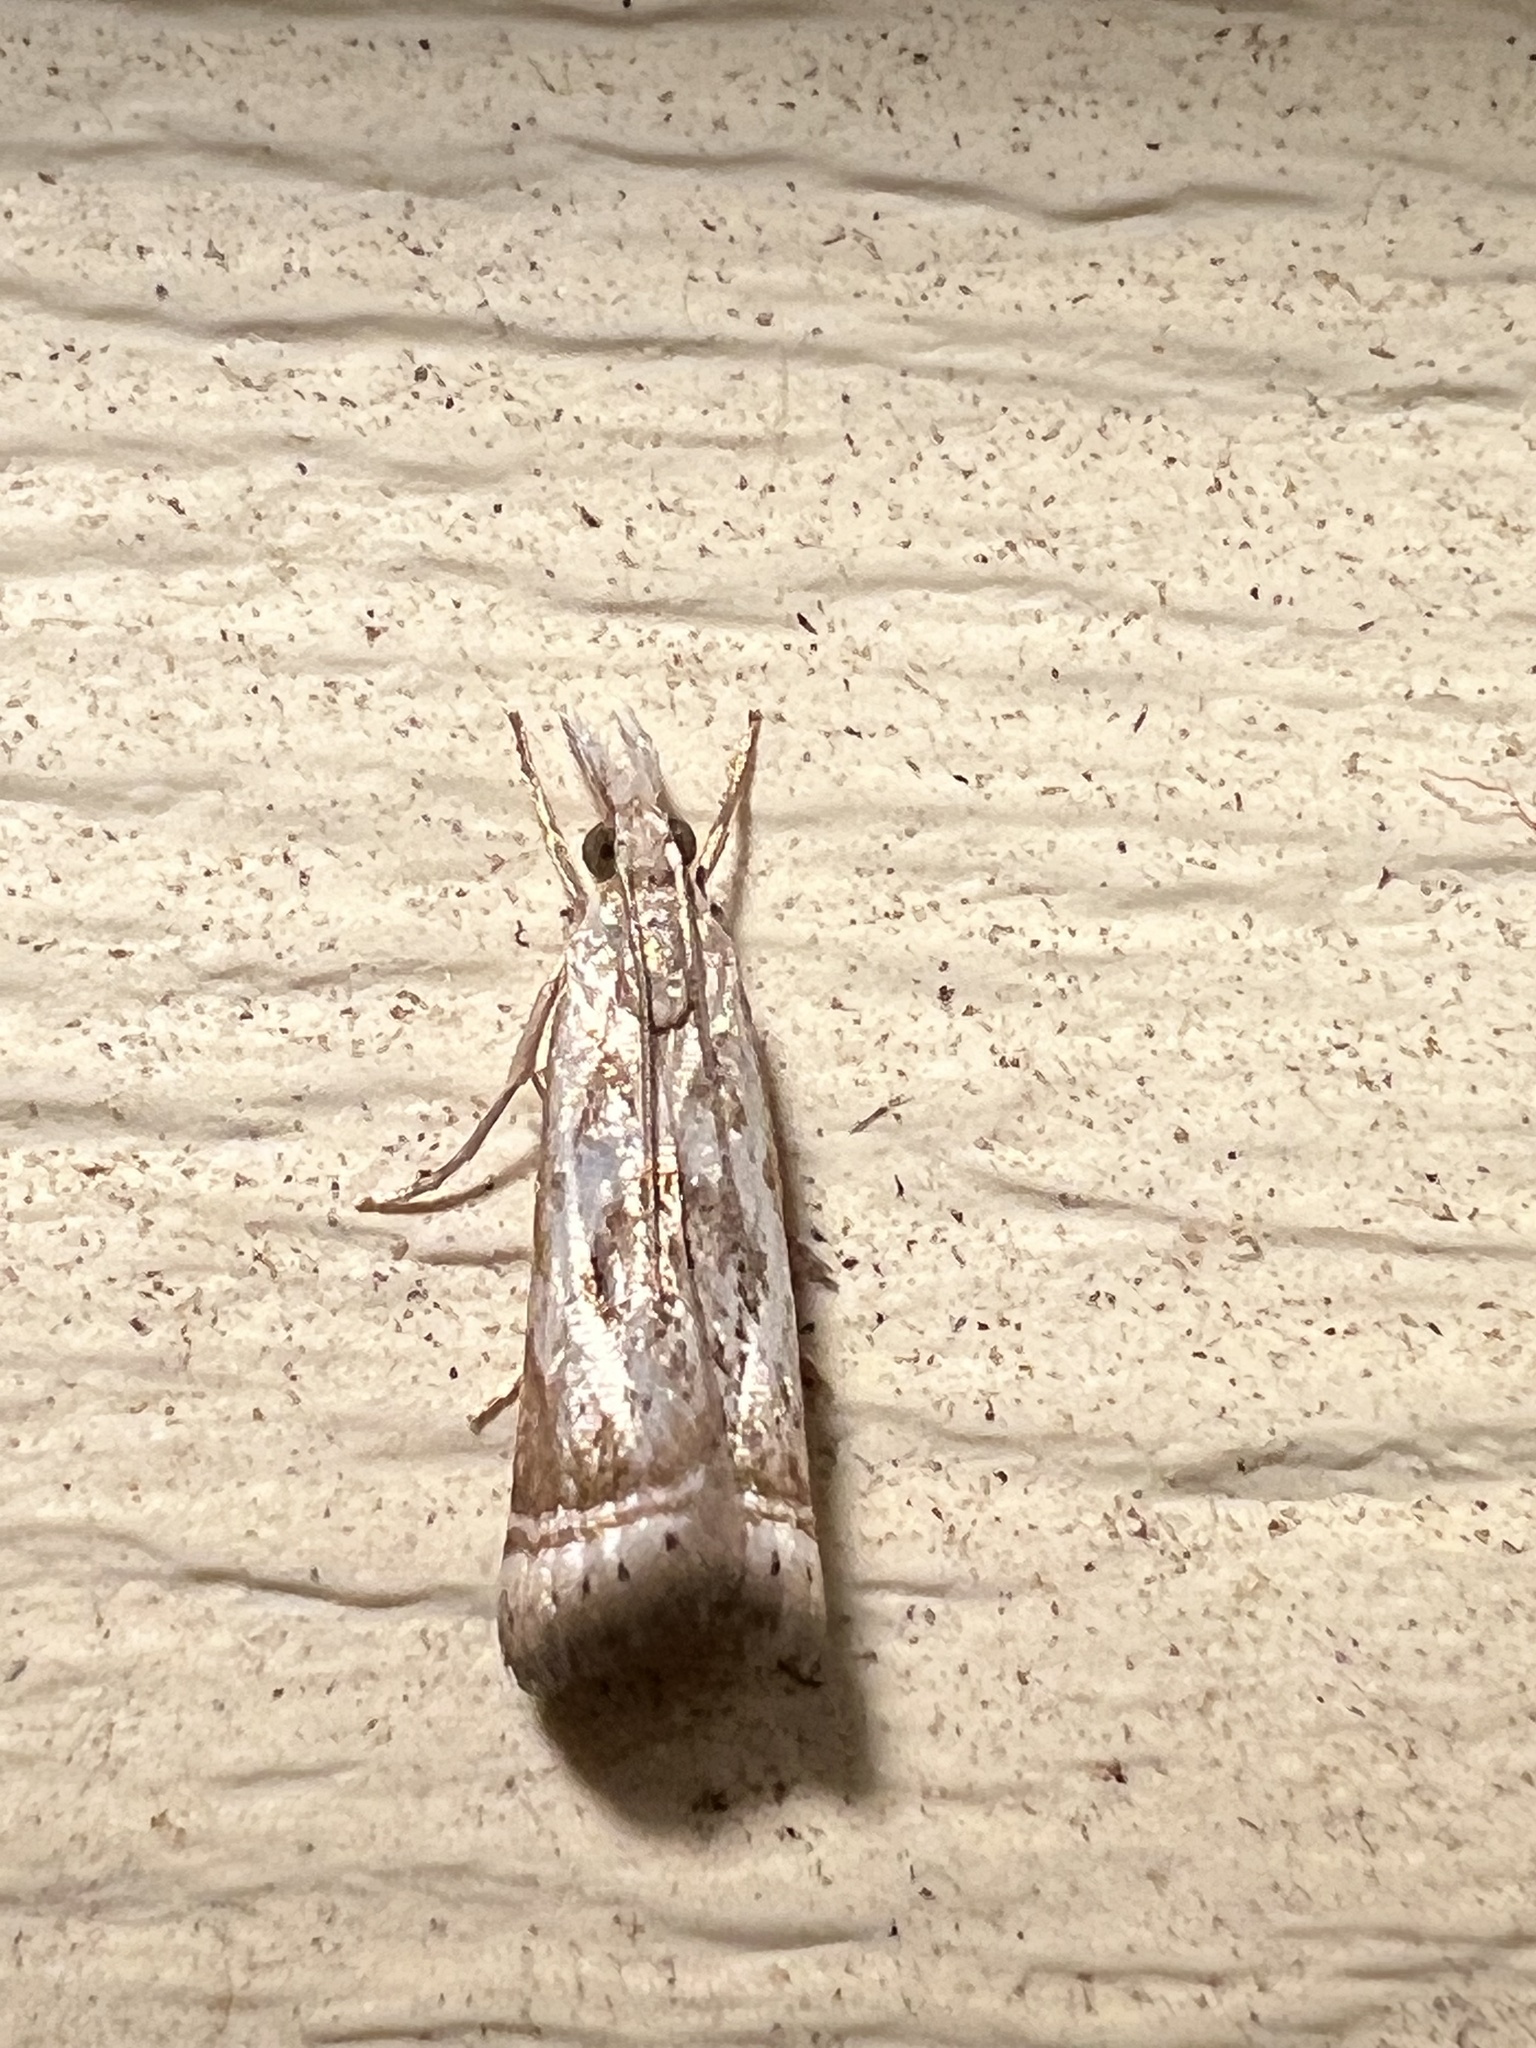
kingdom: Animalia
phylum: Arthropoda
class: Insecta
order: Lepidoptera
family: Crambidae
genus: Microcrambus
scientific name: Microcrambus elegans
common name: Elegant grass-veneer
